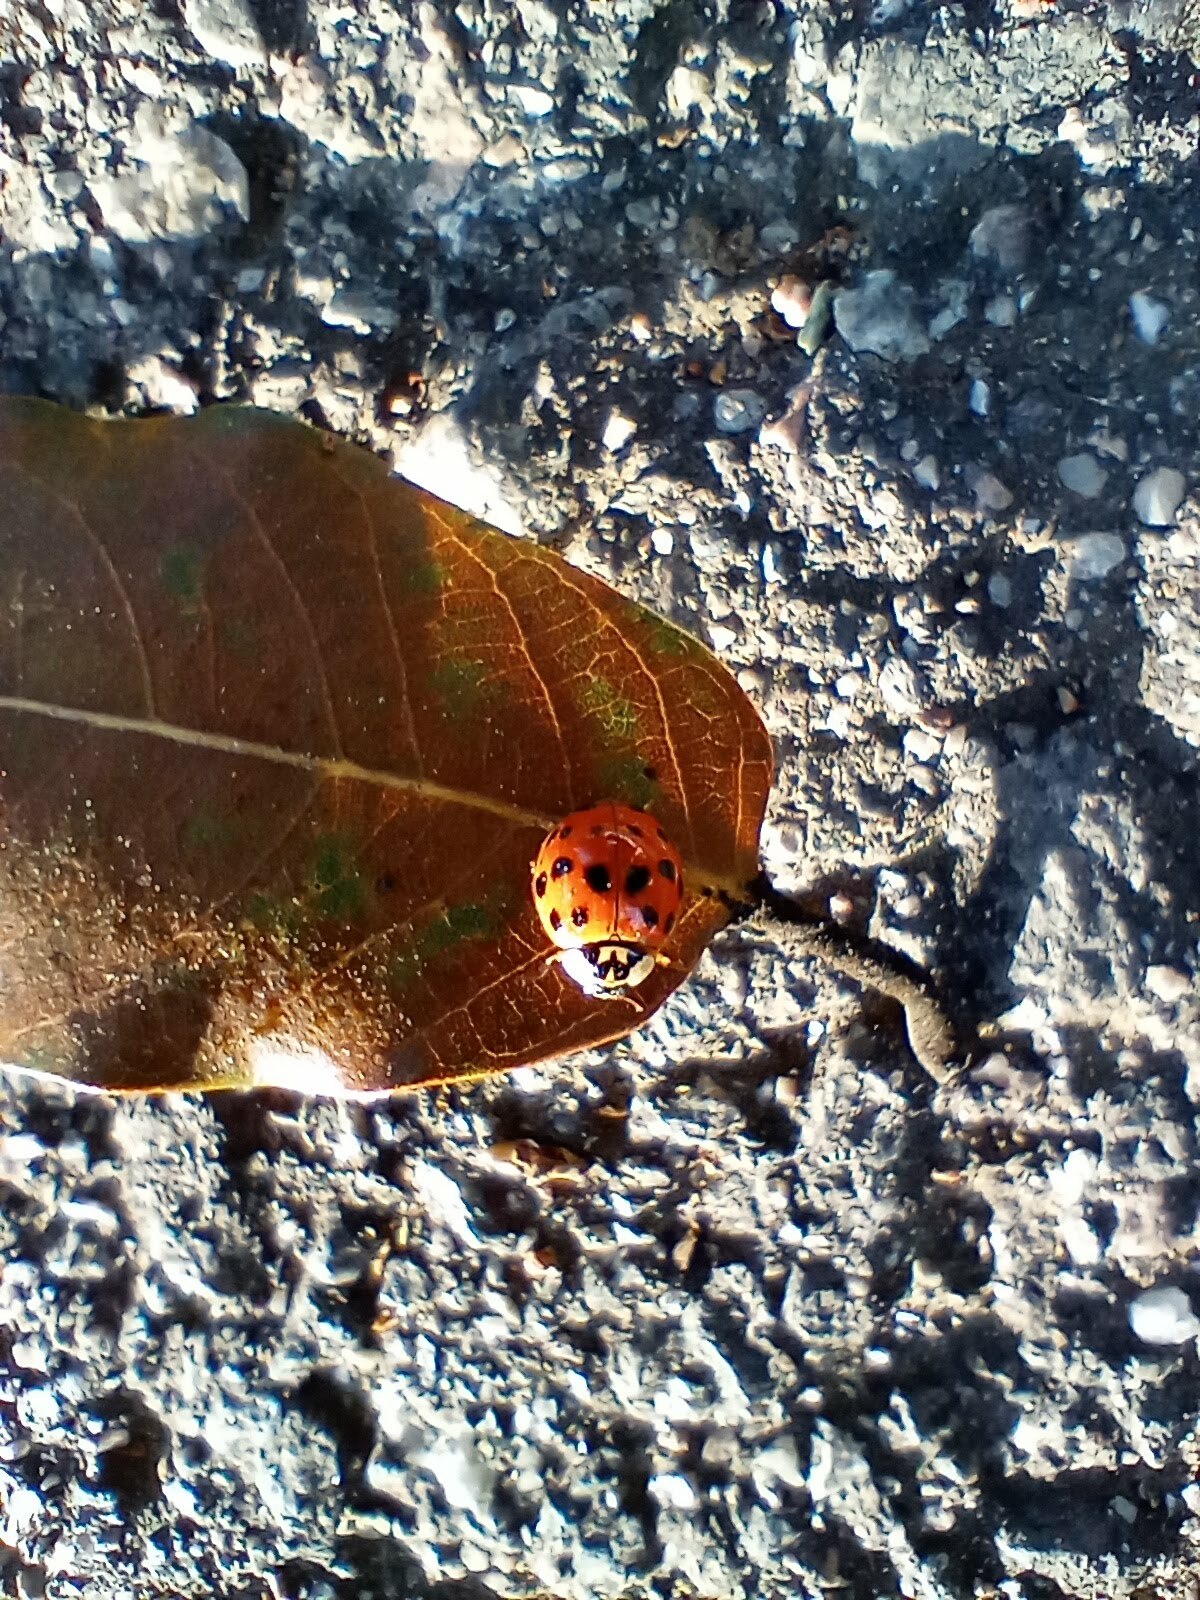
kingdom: Animalia
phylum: Arthropoda
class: Insecta
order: Coleoptera
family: Coccinellidae
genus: Harmonia
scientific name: Harmonia axyridis
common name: Harlequin ladybird
